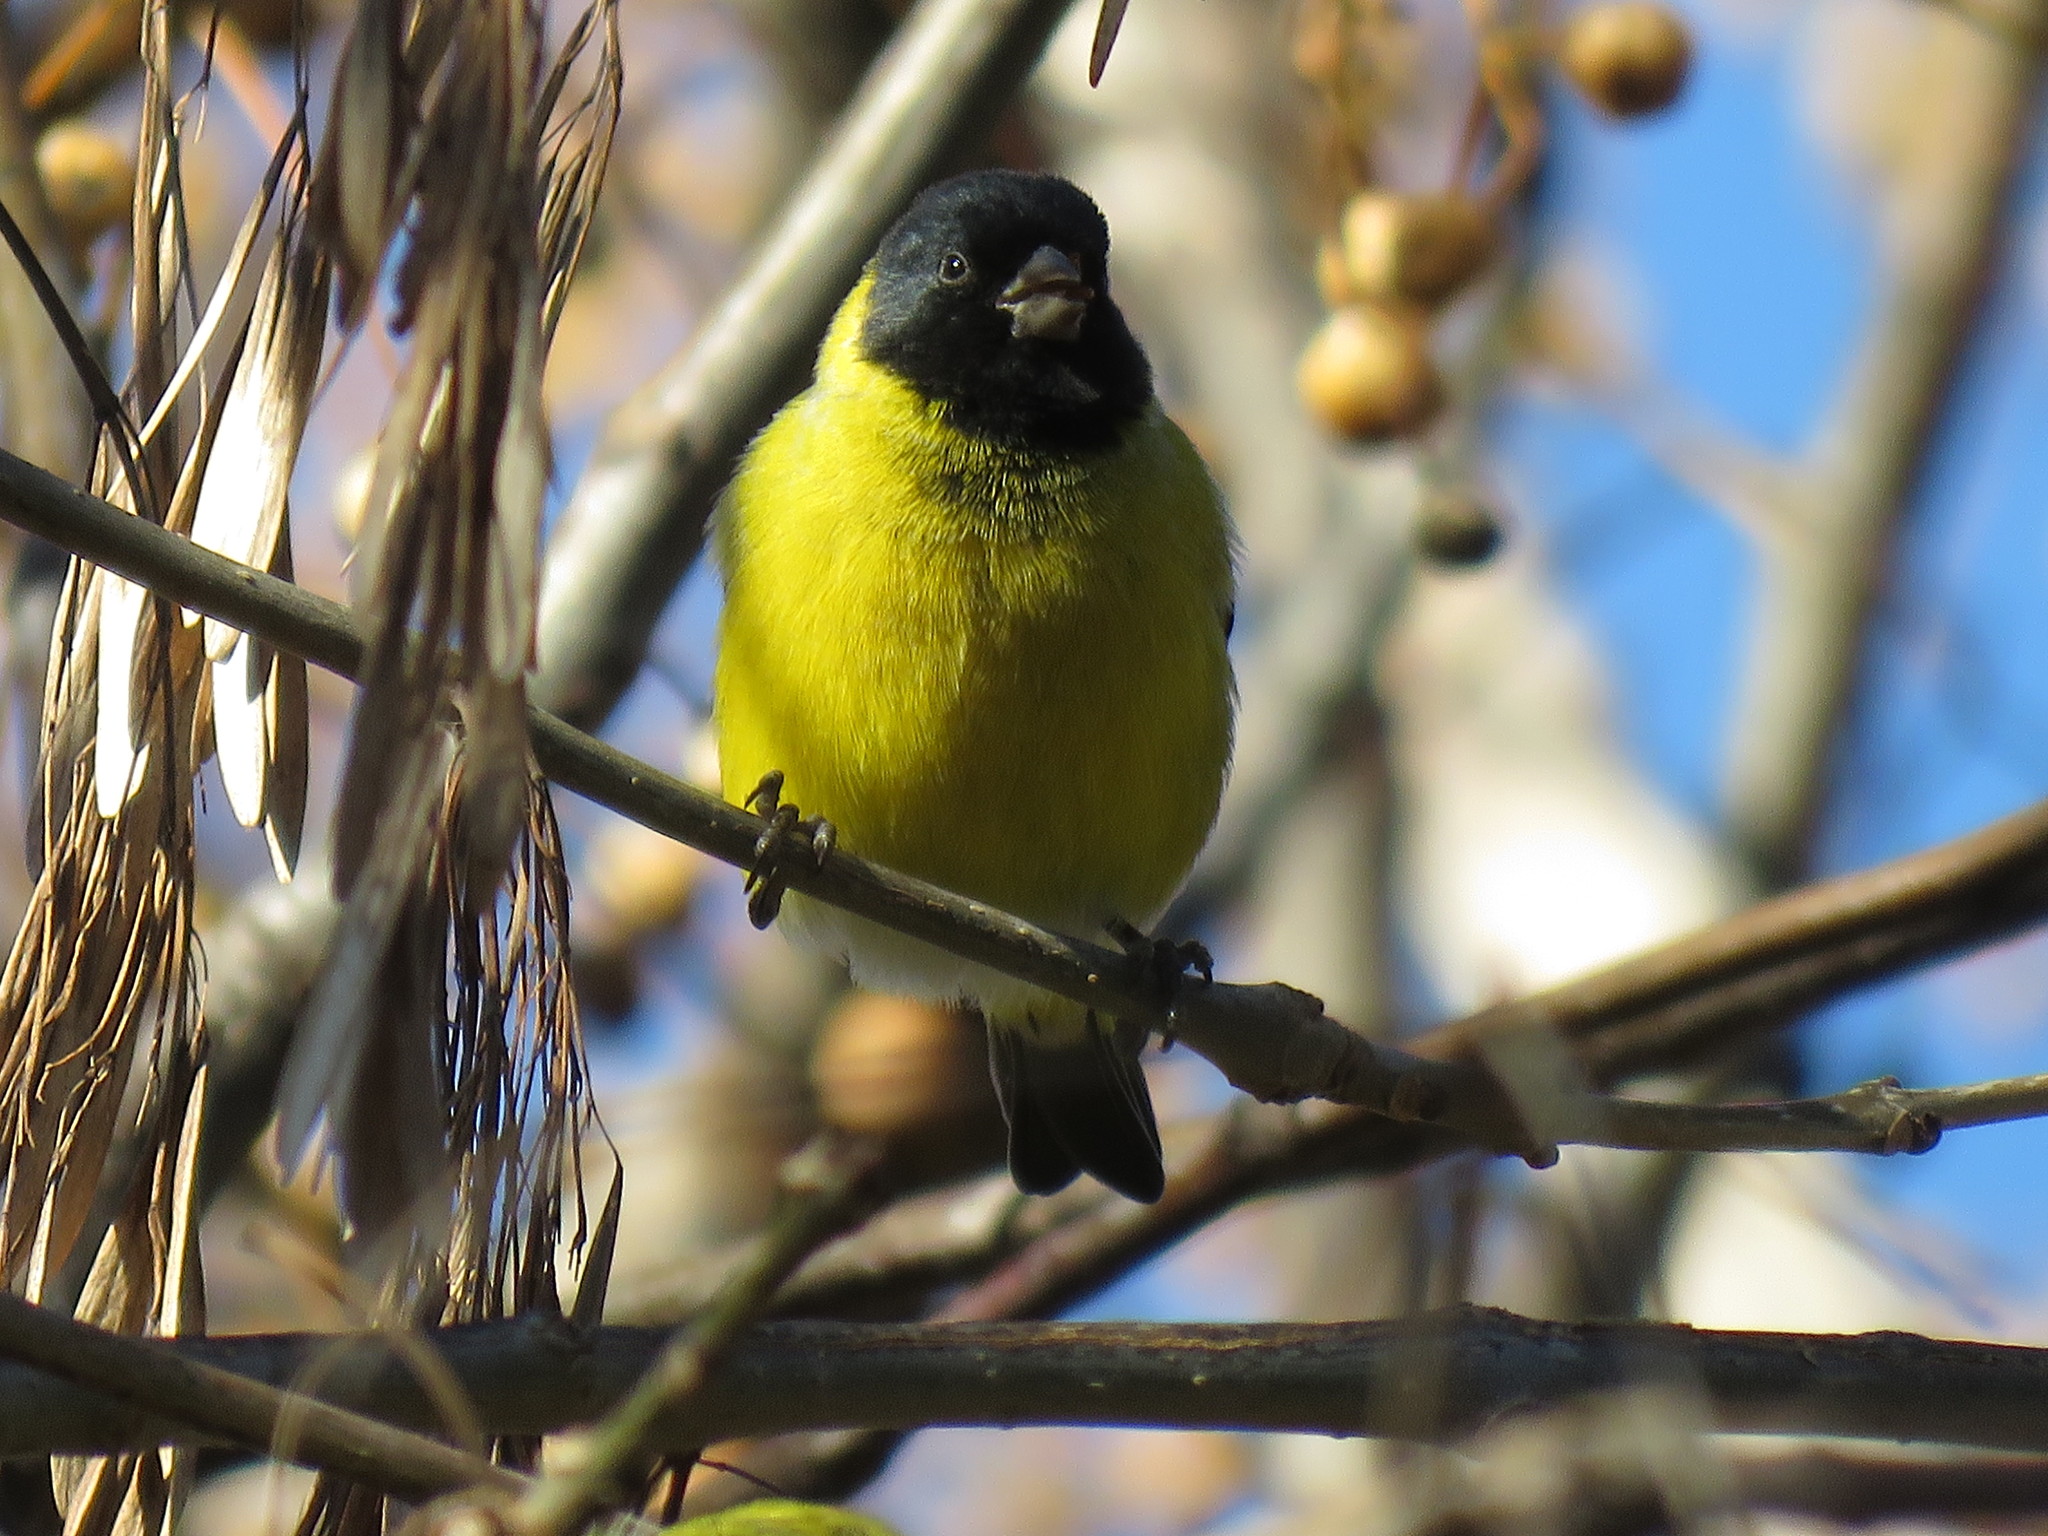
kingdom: Animalia
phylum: Chordata
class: Aves
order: Passeriformes
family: Fringillidae
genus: Spinus
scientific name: Spinus magellanicus
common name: Hooded siskin
